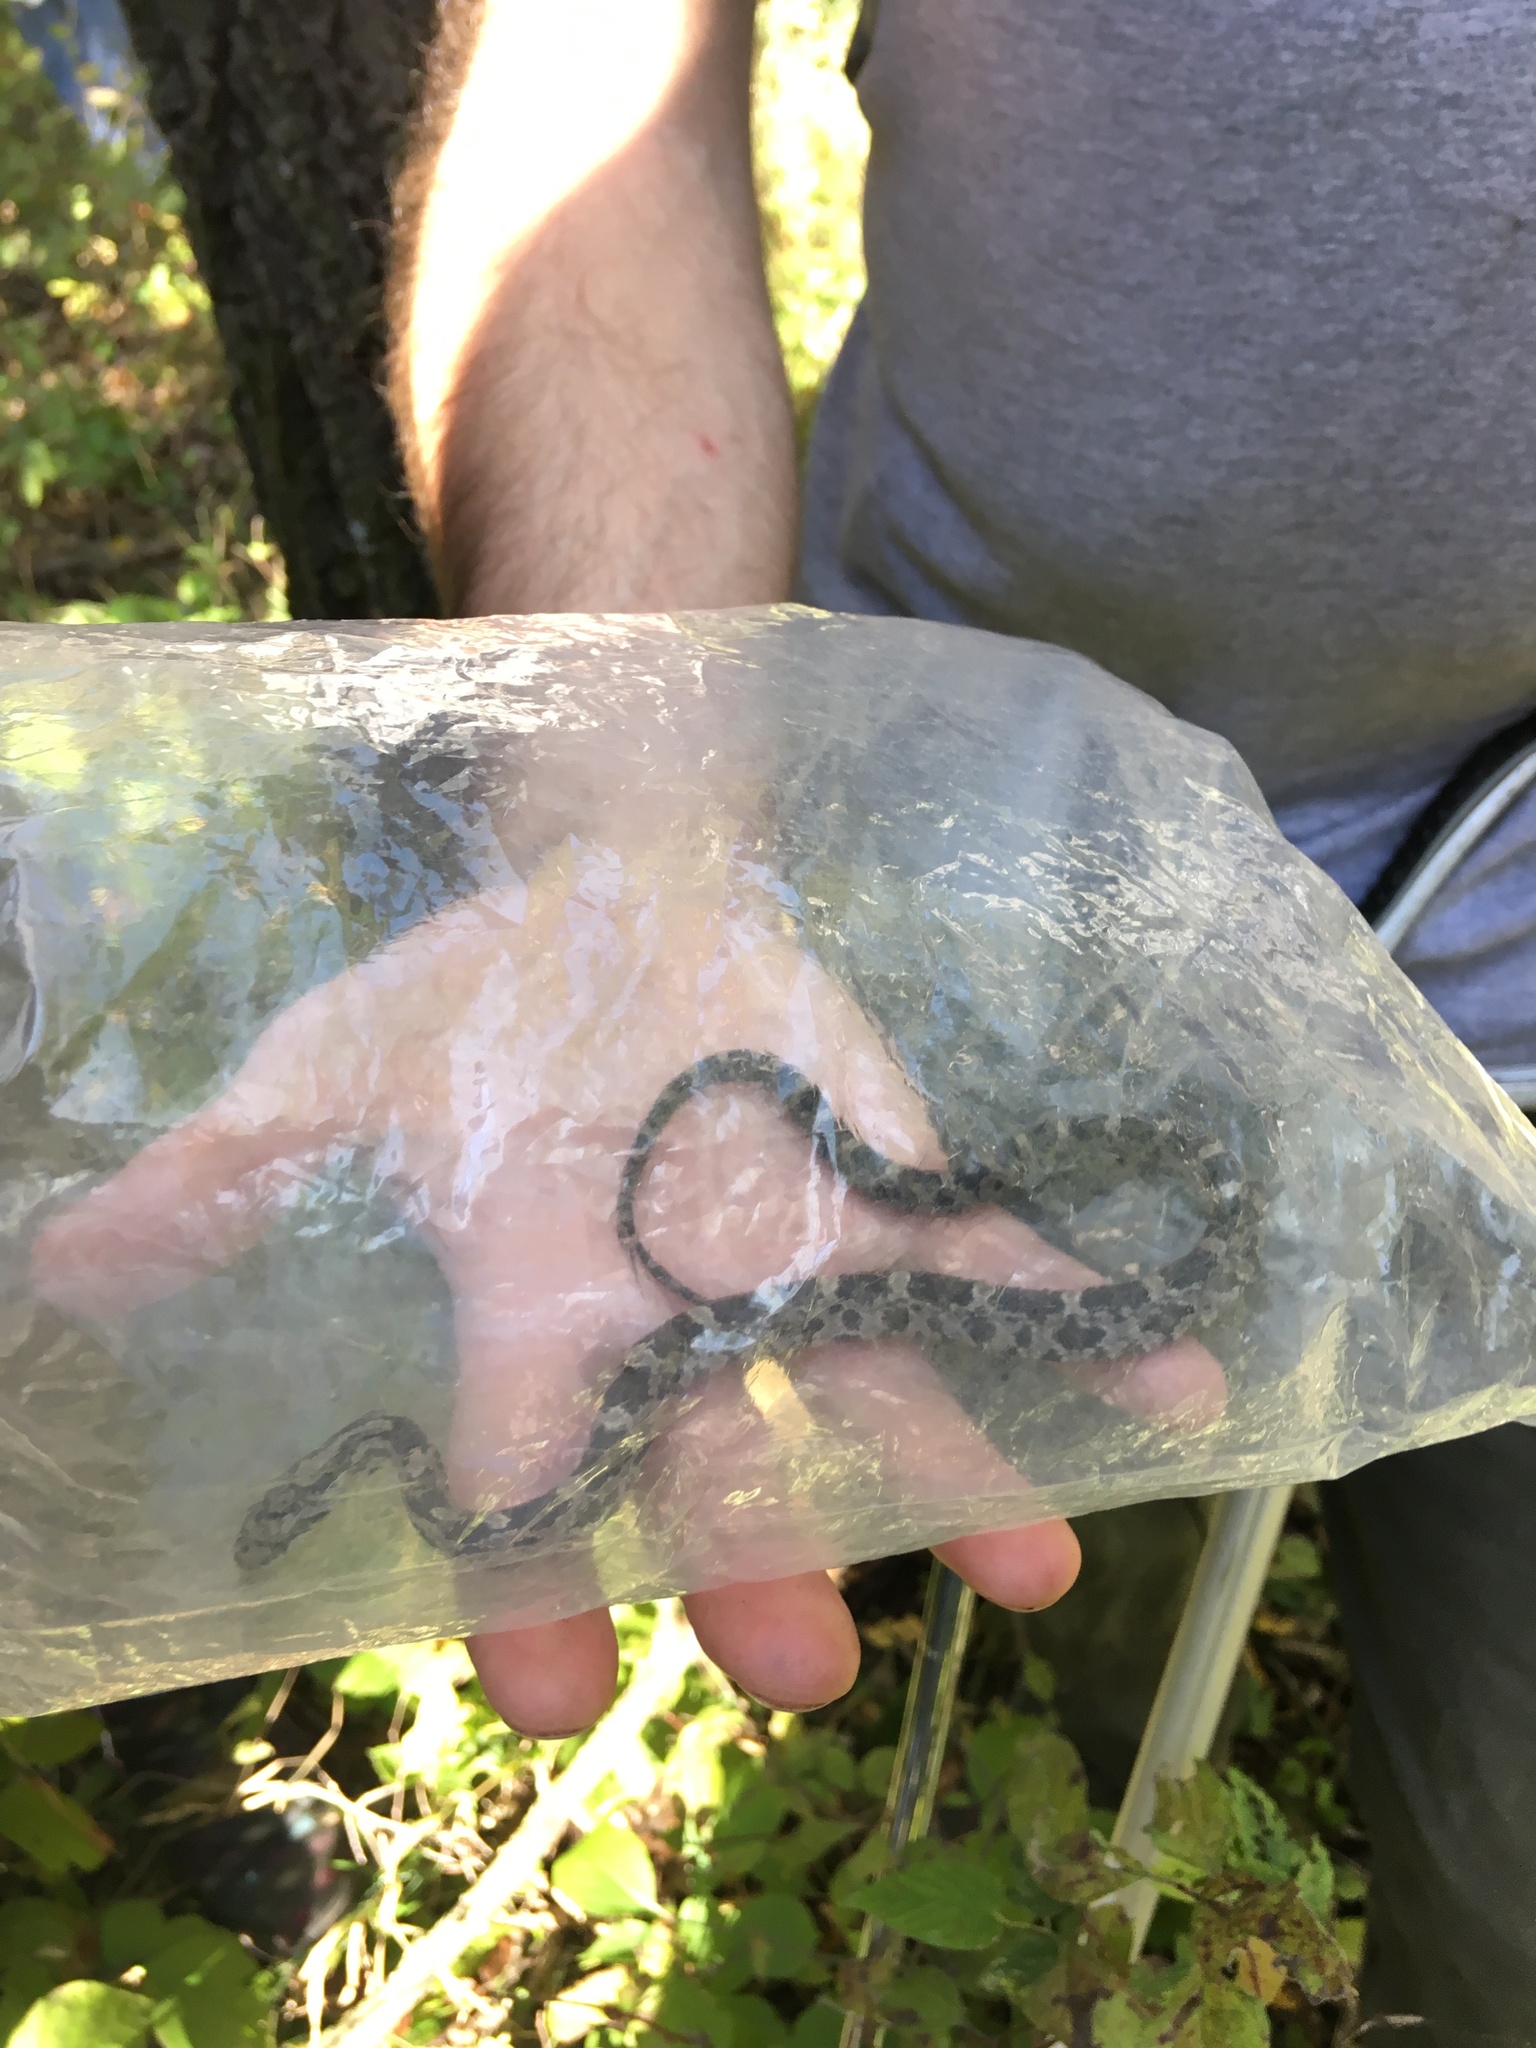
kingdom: Animalia
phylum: Chordata
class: Squamata
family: Colubridae
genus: Pantherophis
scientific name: Pantherophis obsoletus
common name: Black rat snake
